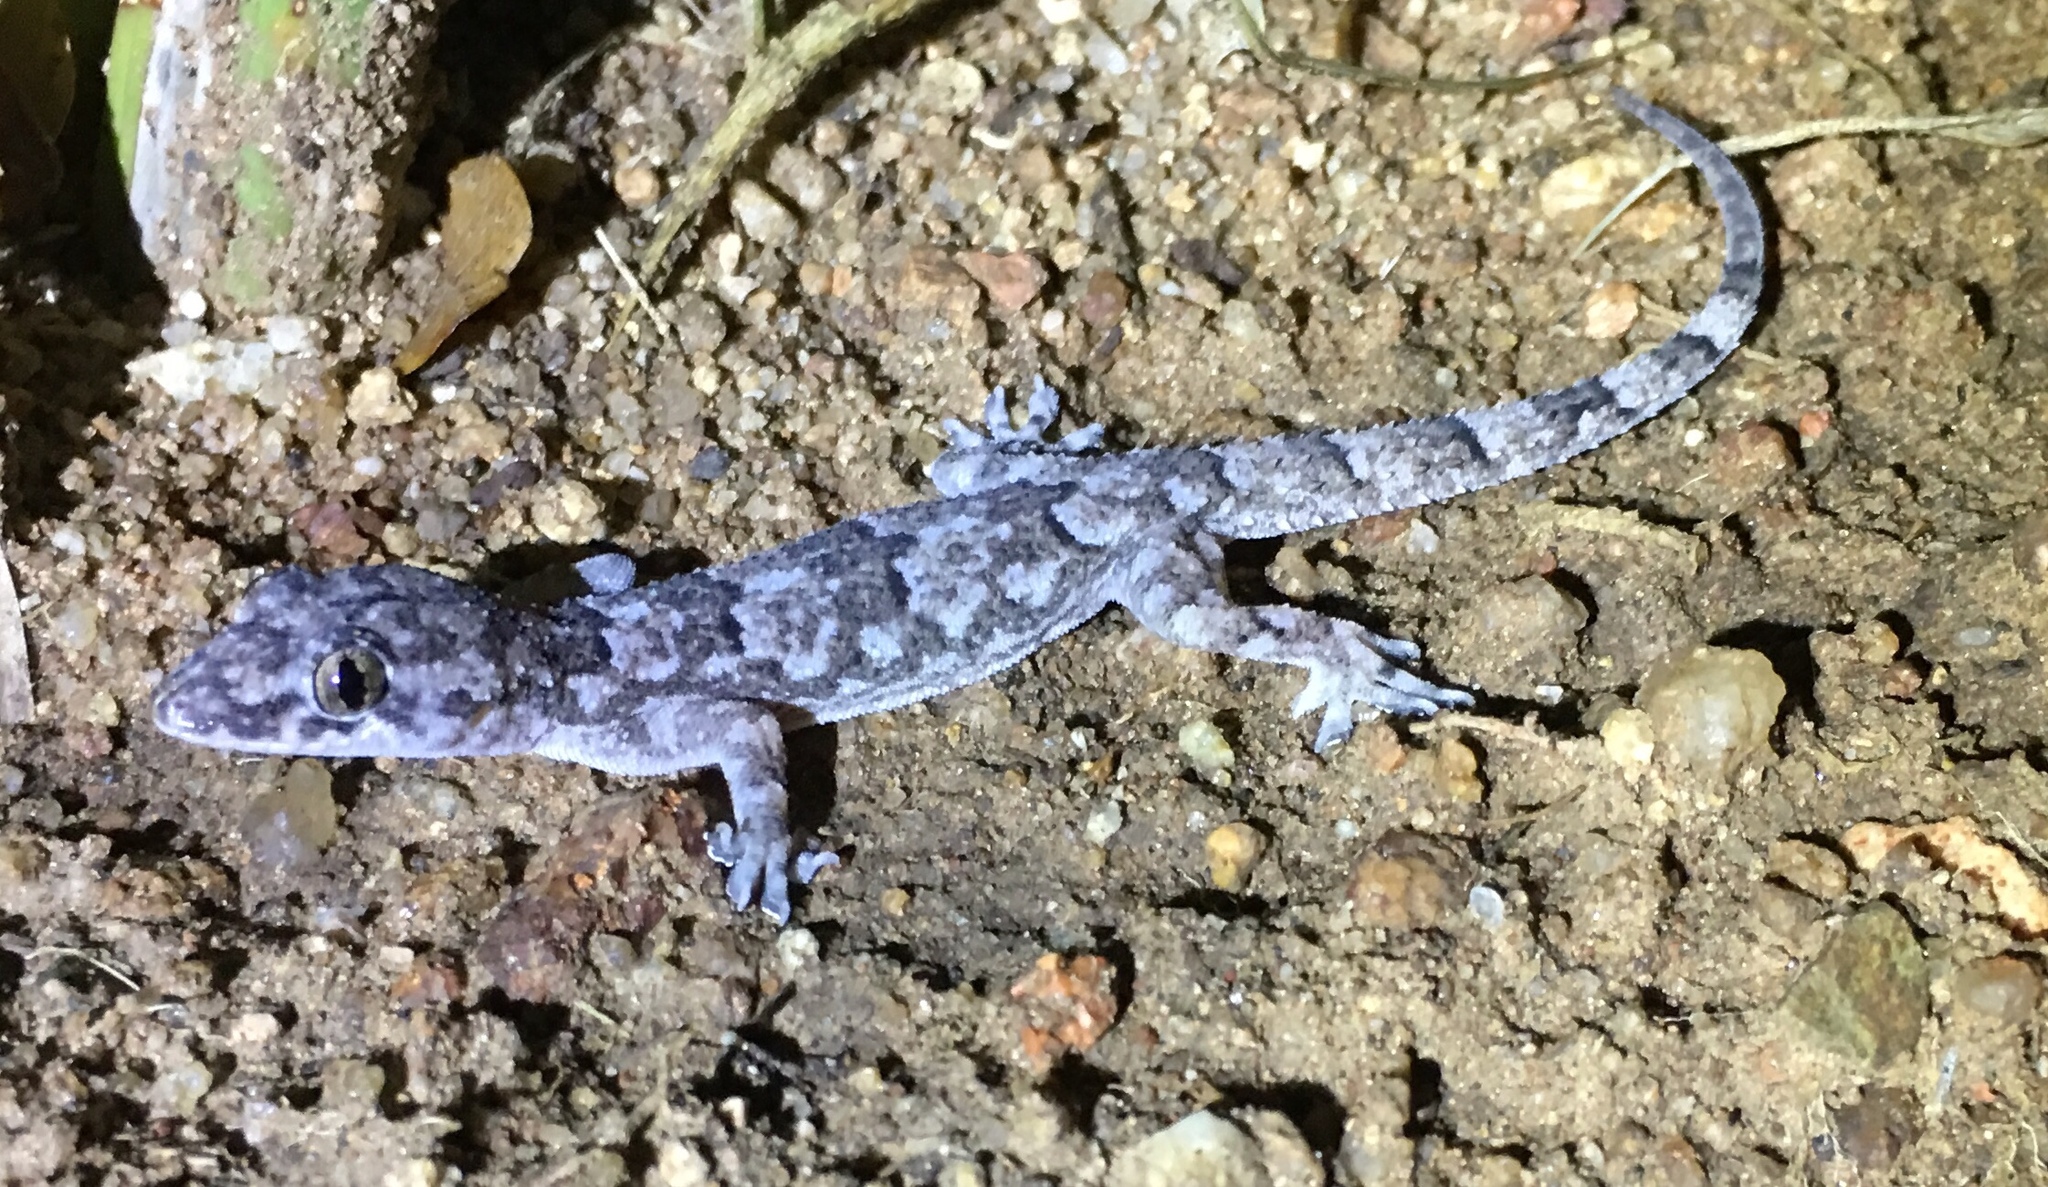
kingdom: Animalia
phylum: Chordata
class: Squamata
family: Gekkonidae
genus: Hemidactylus
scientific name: Hemidactylus mabouia
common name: House gecko
